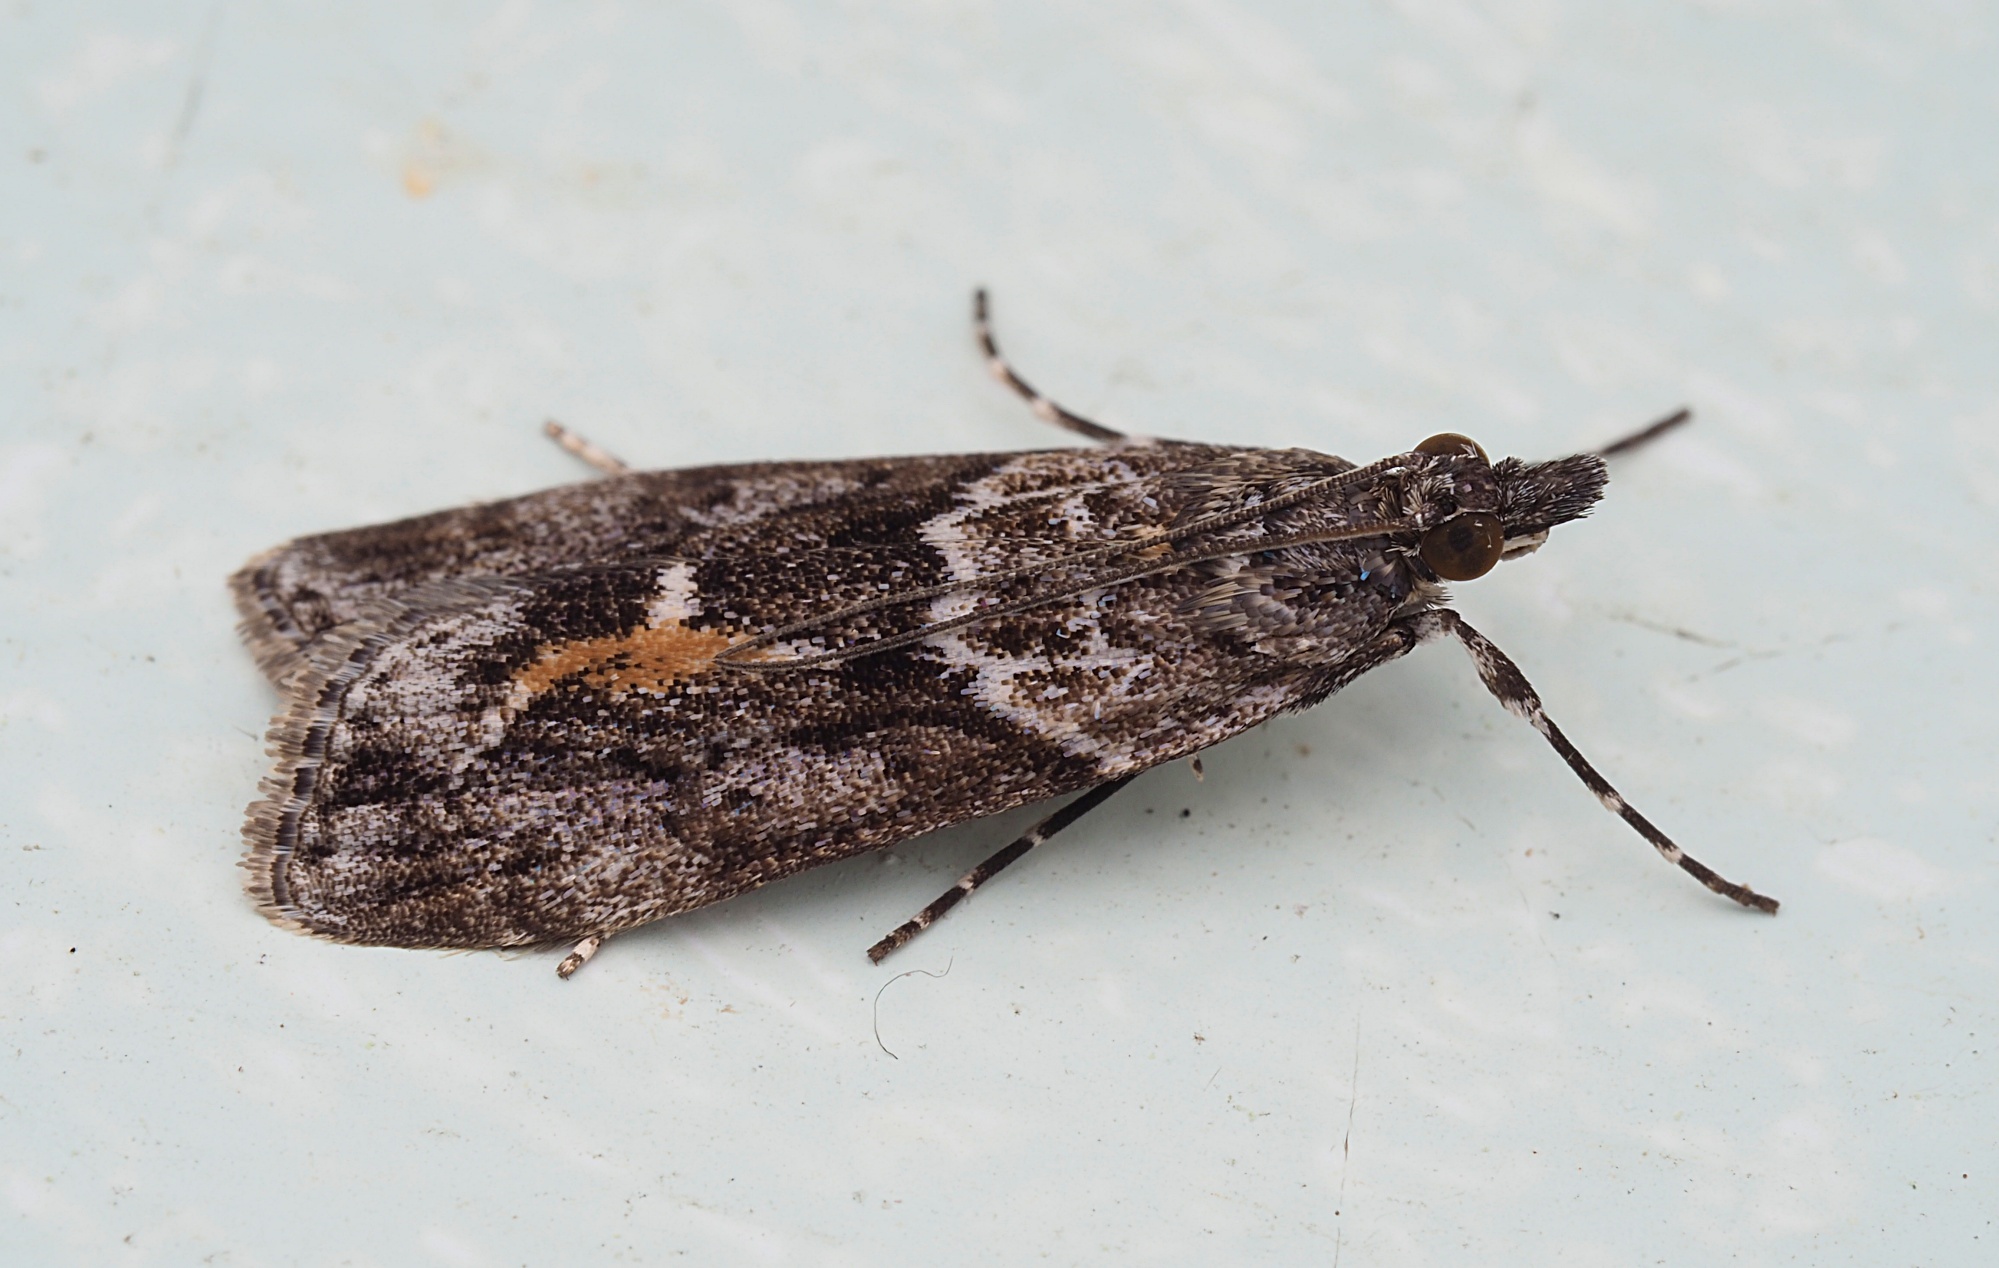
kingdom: Animalia
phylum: Arthropoda
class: Insecta
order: Lepidoptera
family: Crambidae
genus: Eudonia
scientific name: Eudonia submarginalis
